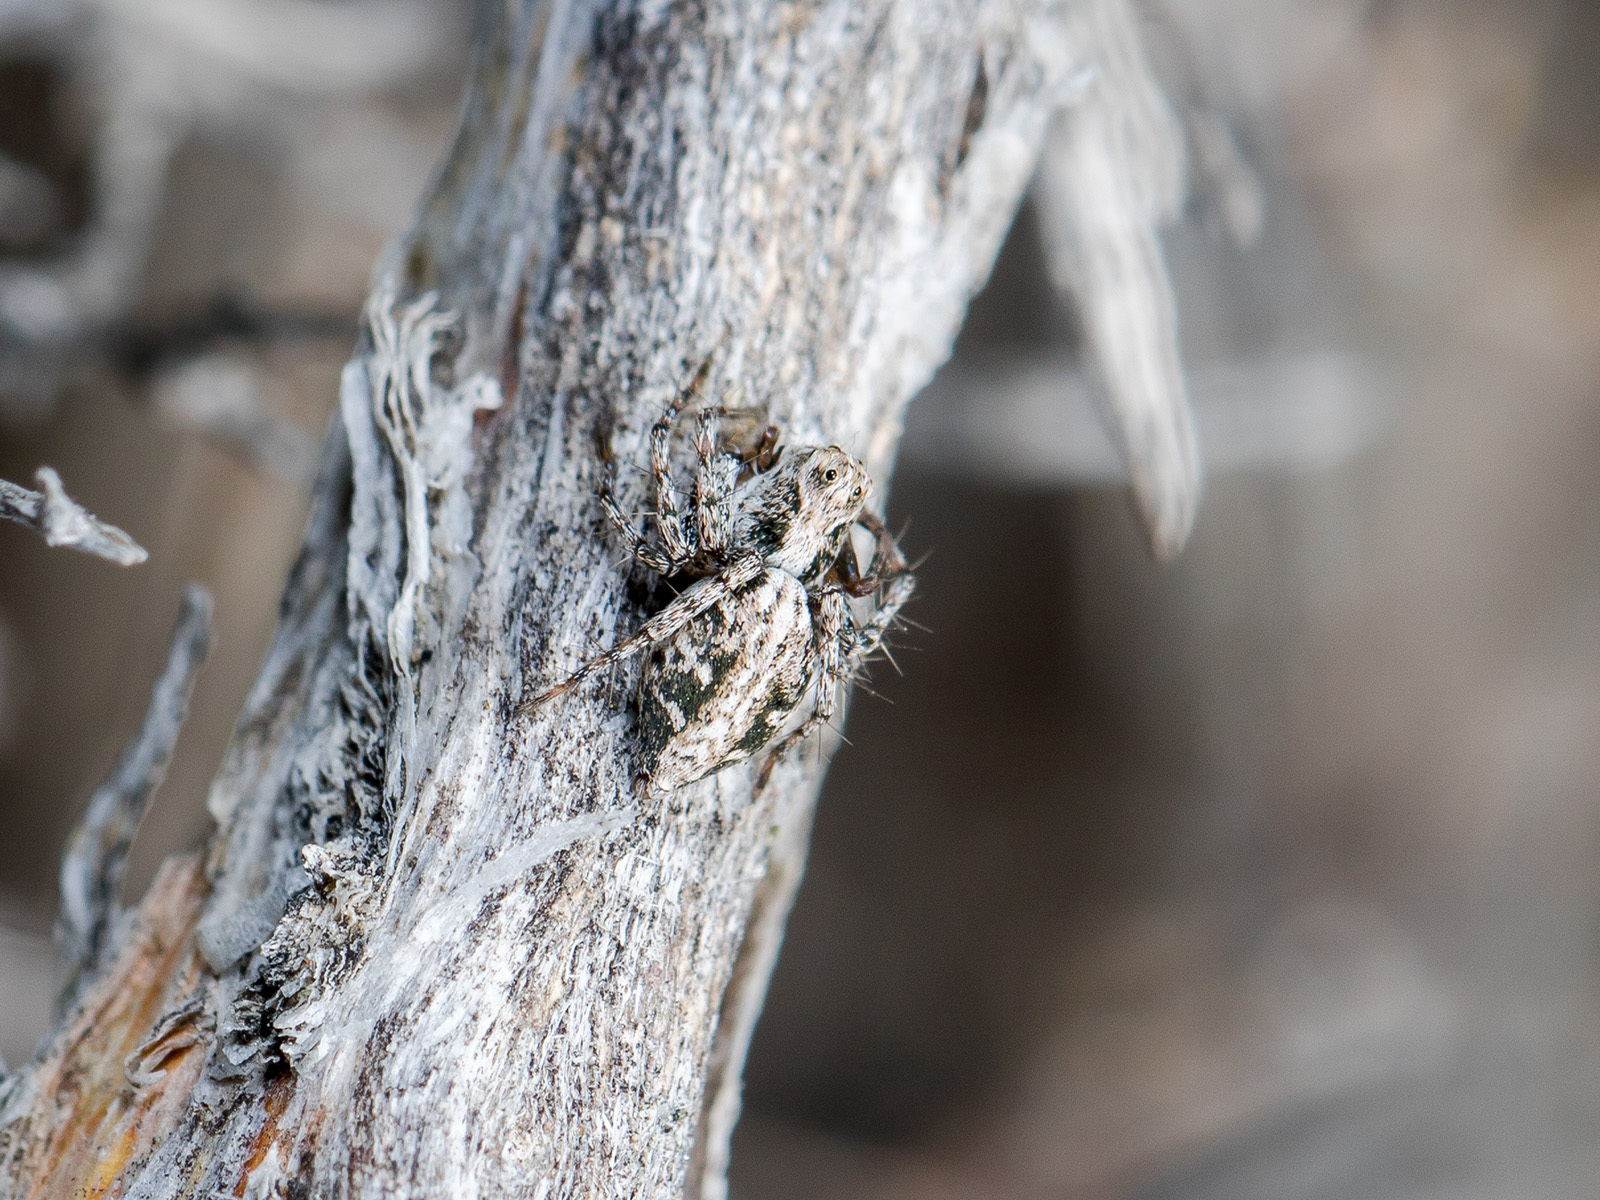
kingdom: Animalia
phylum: Arthropoda
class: Arachnida
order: Araneae
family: Oxyopidae
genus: Oxyopes
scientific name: Oxyopes nenilini
